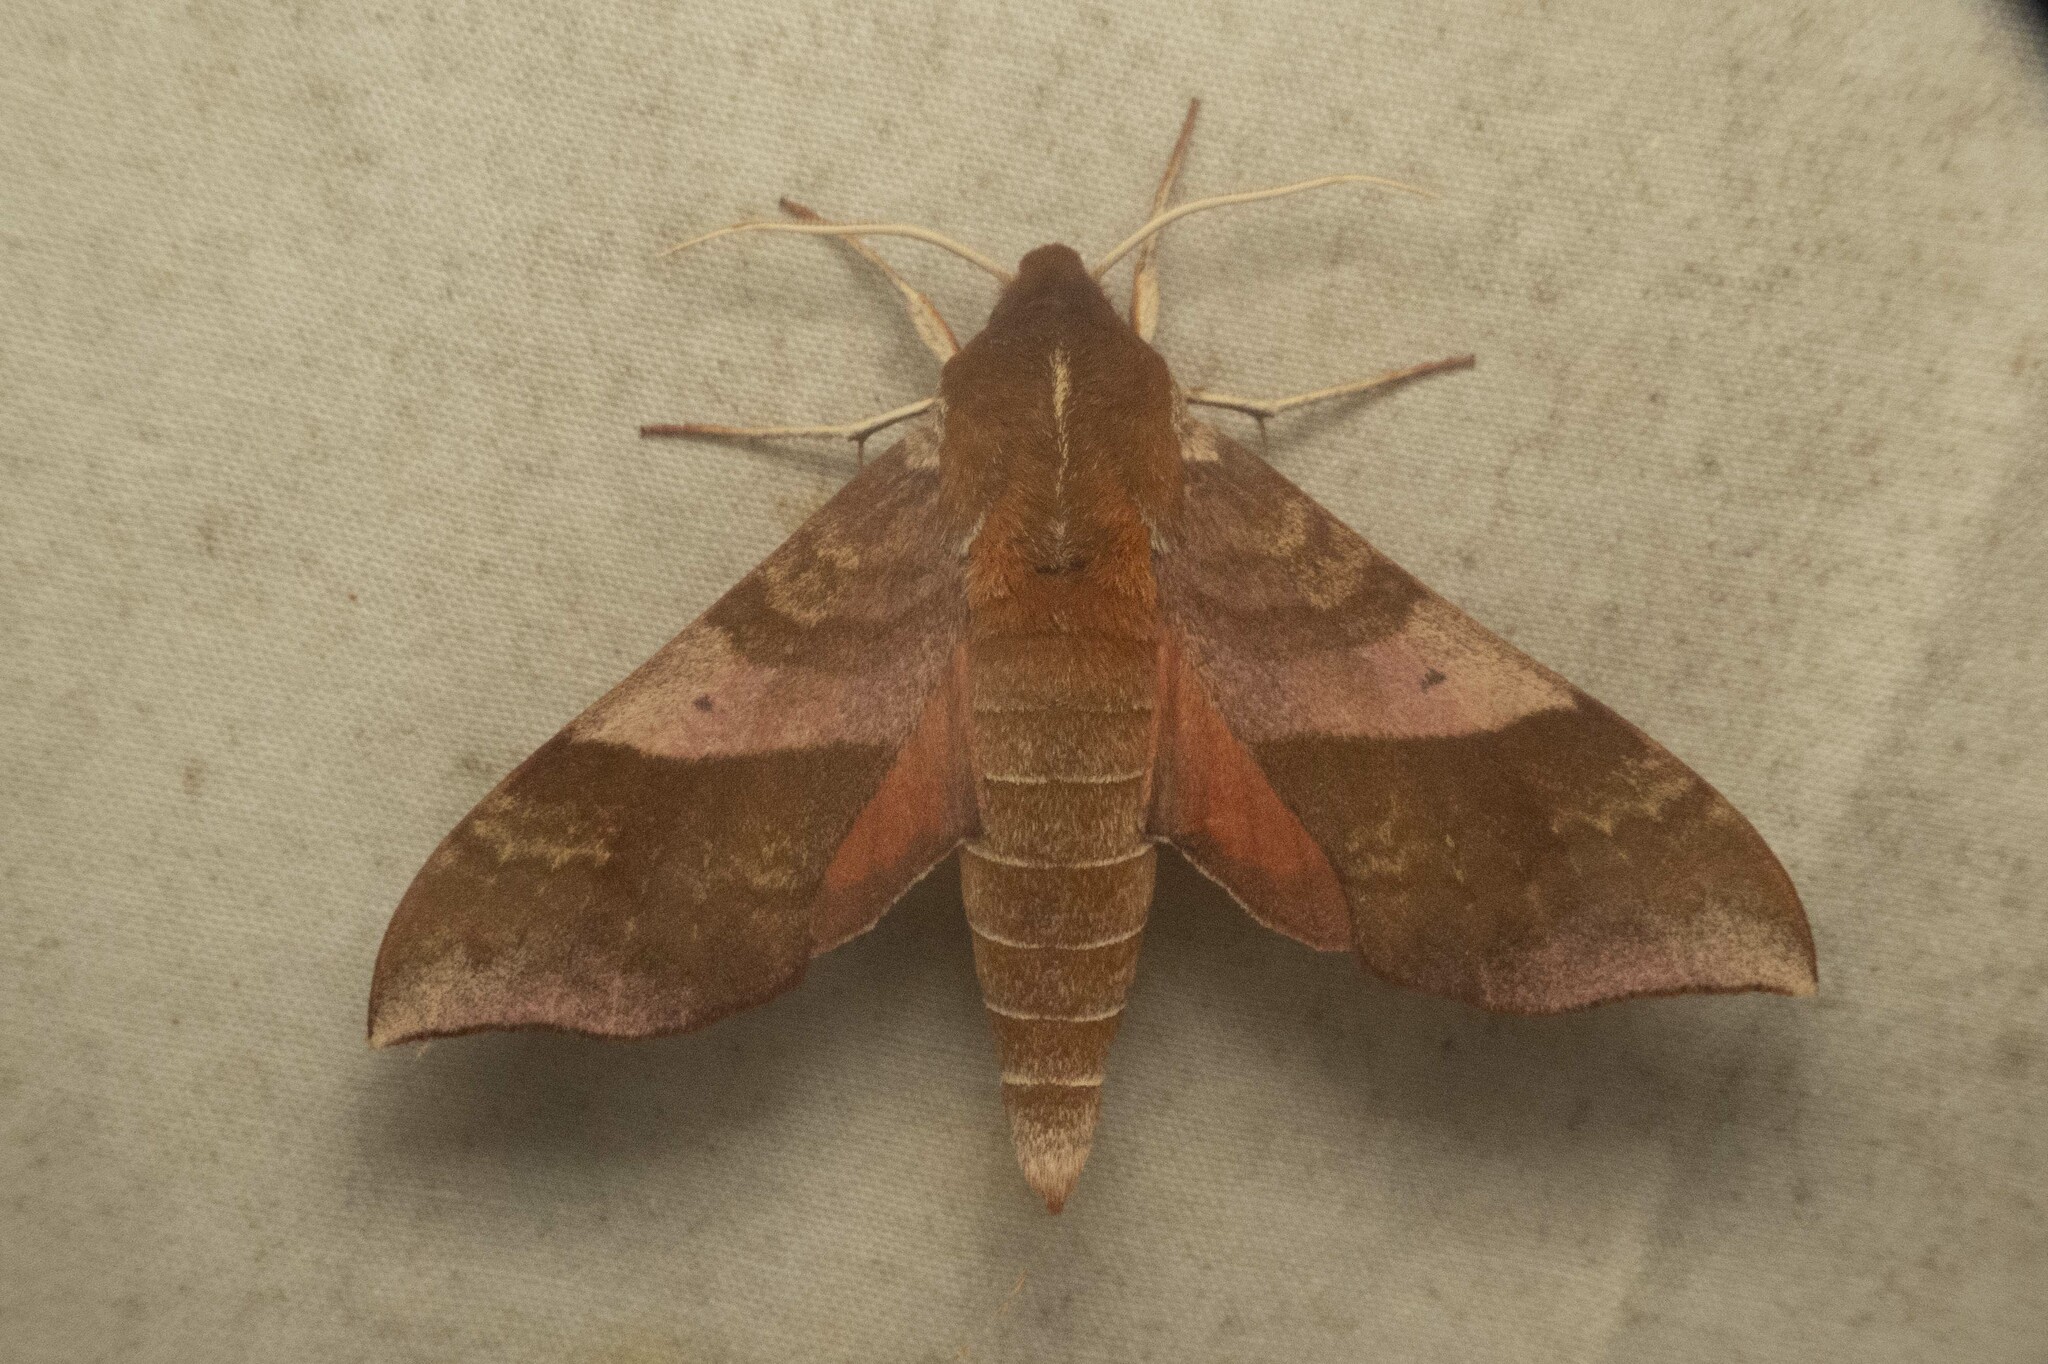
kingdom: Animalia
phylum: Arthropoda
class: Insecta
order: Lepidoptera
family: Sphingidae
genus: Darapsa
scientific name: Darapsa choerilus
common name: Azalea sphinx
